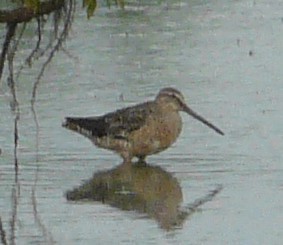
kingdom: Animalia
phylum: Chordata
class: Aves
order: Charadriiformes
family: Scolopacidae
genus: Limnodromus
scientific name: Limnodromus
